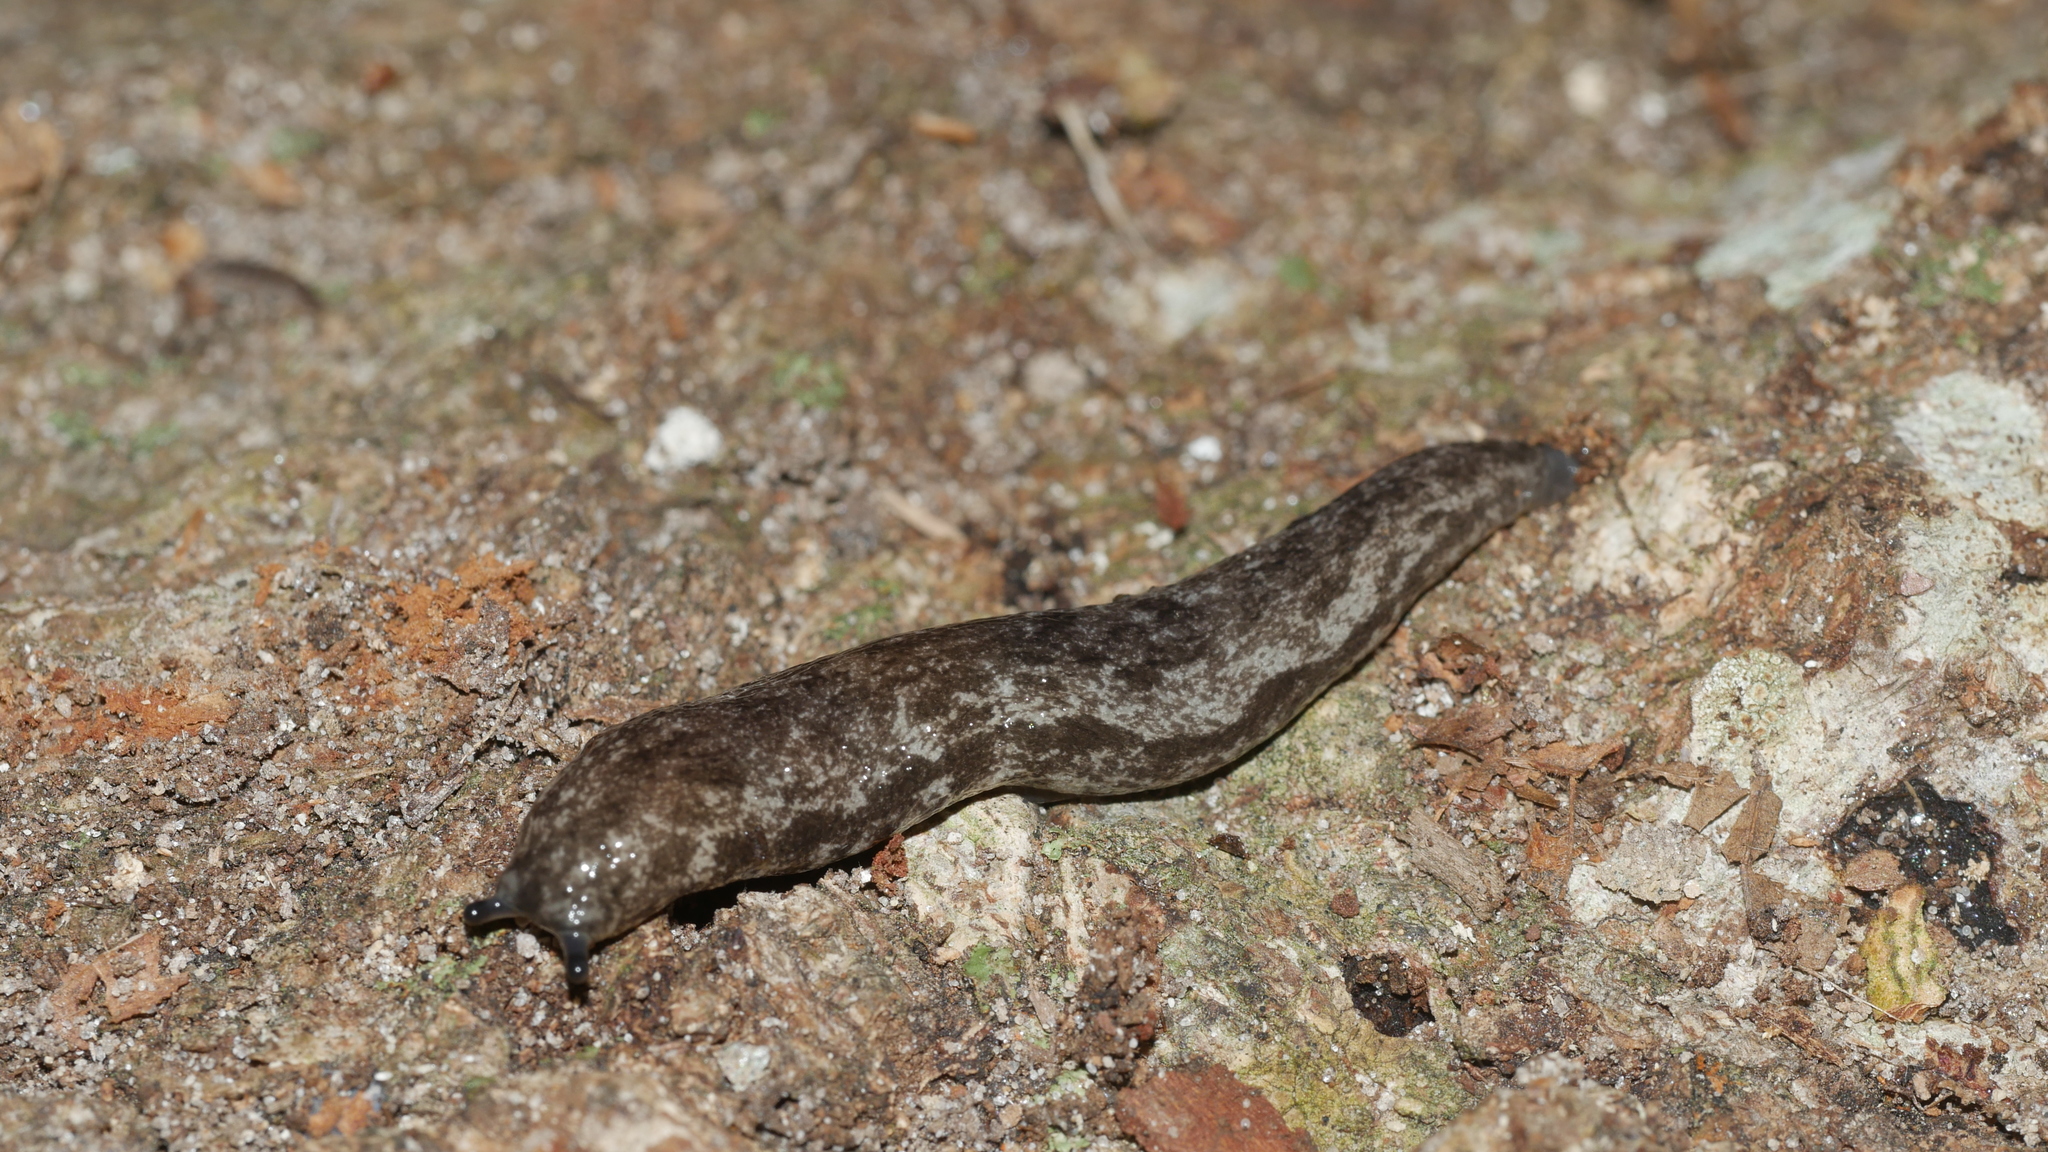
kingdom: Animalia
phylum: Mollusca
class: Gastropoda
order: Stylommatophora
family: Philomycidae
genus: Megapallifera
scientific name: Megapallifera mutabilis
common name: Changeable mantleslug
